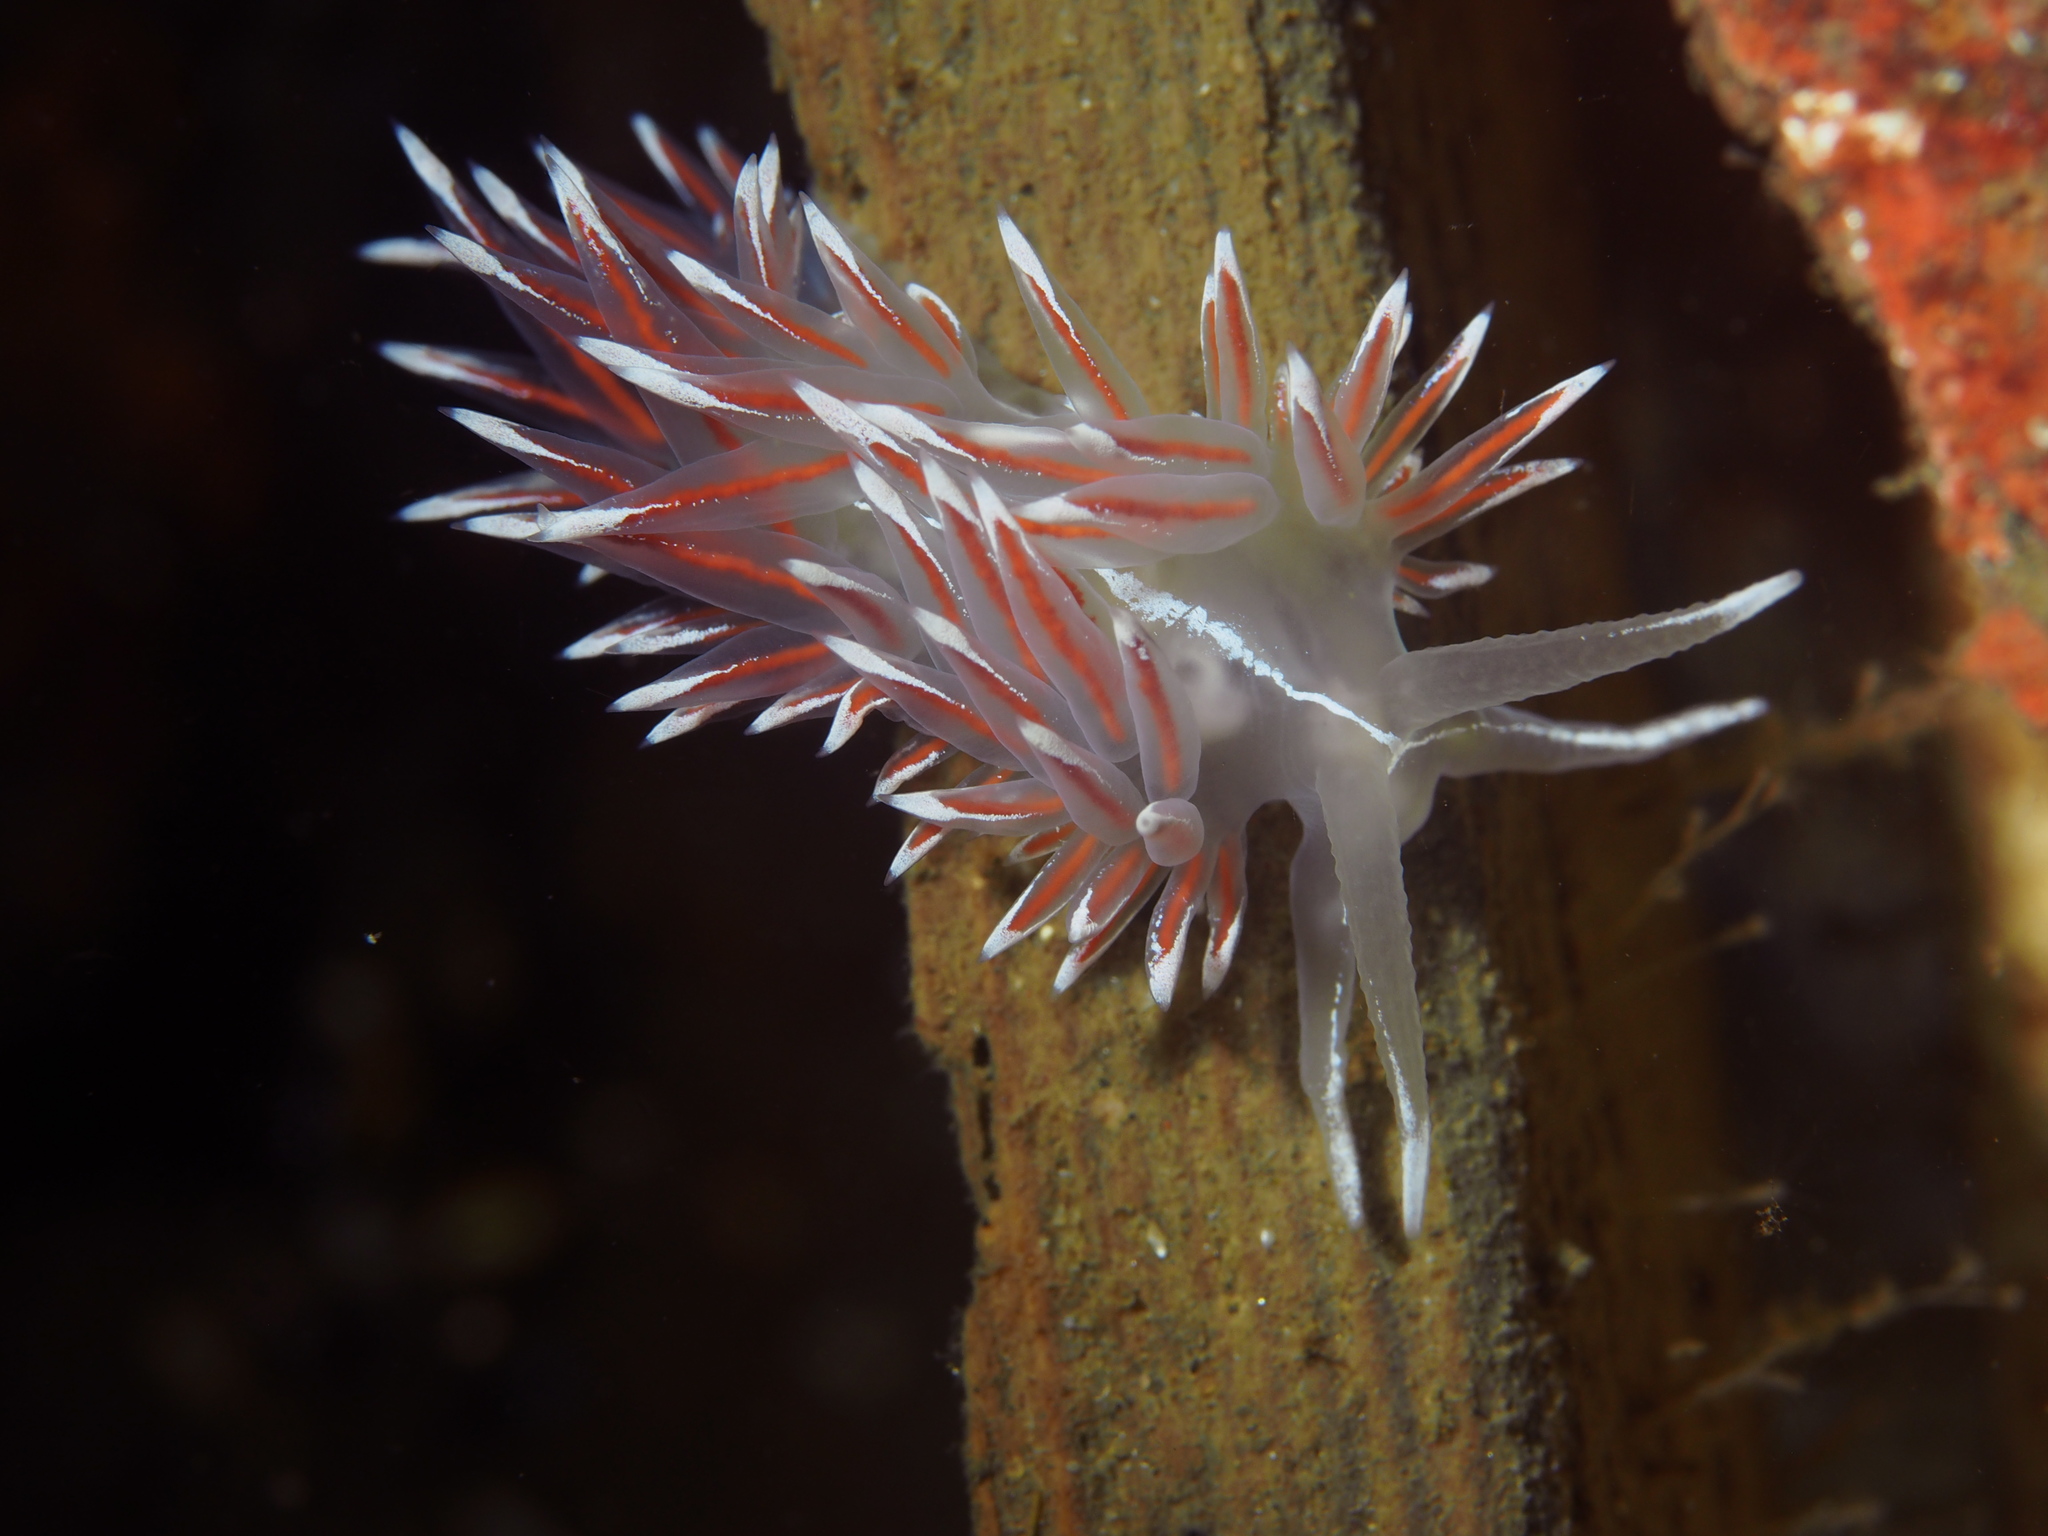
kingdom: Animalia
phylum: Mollusca
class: Gastropoda
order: Nudibranchia
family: Coryphellidae
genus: Coryphella
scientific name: Coryphella lineata
